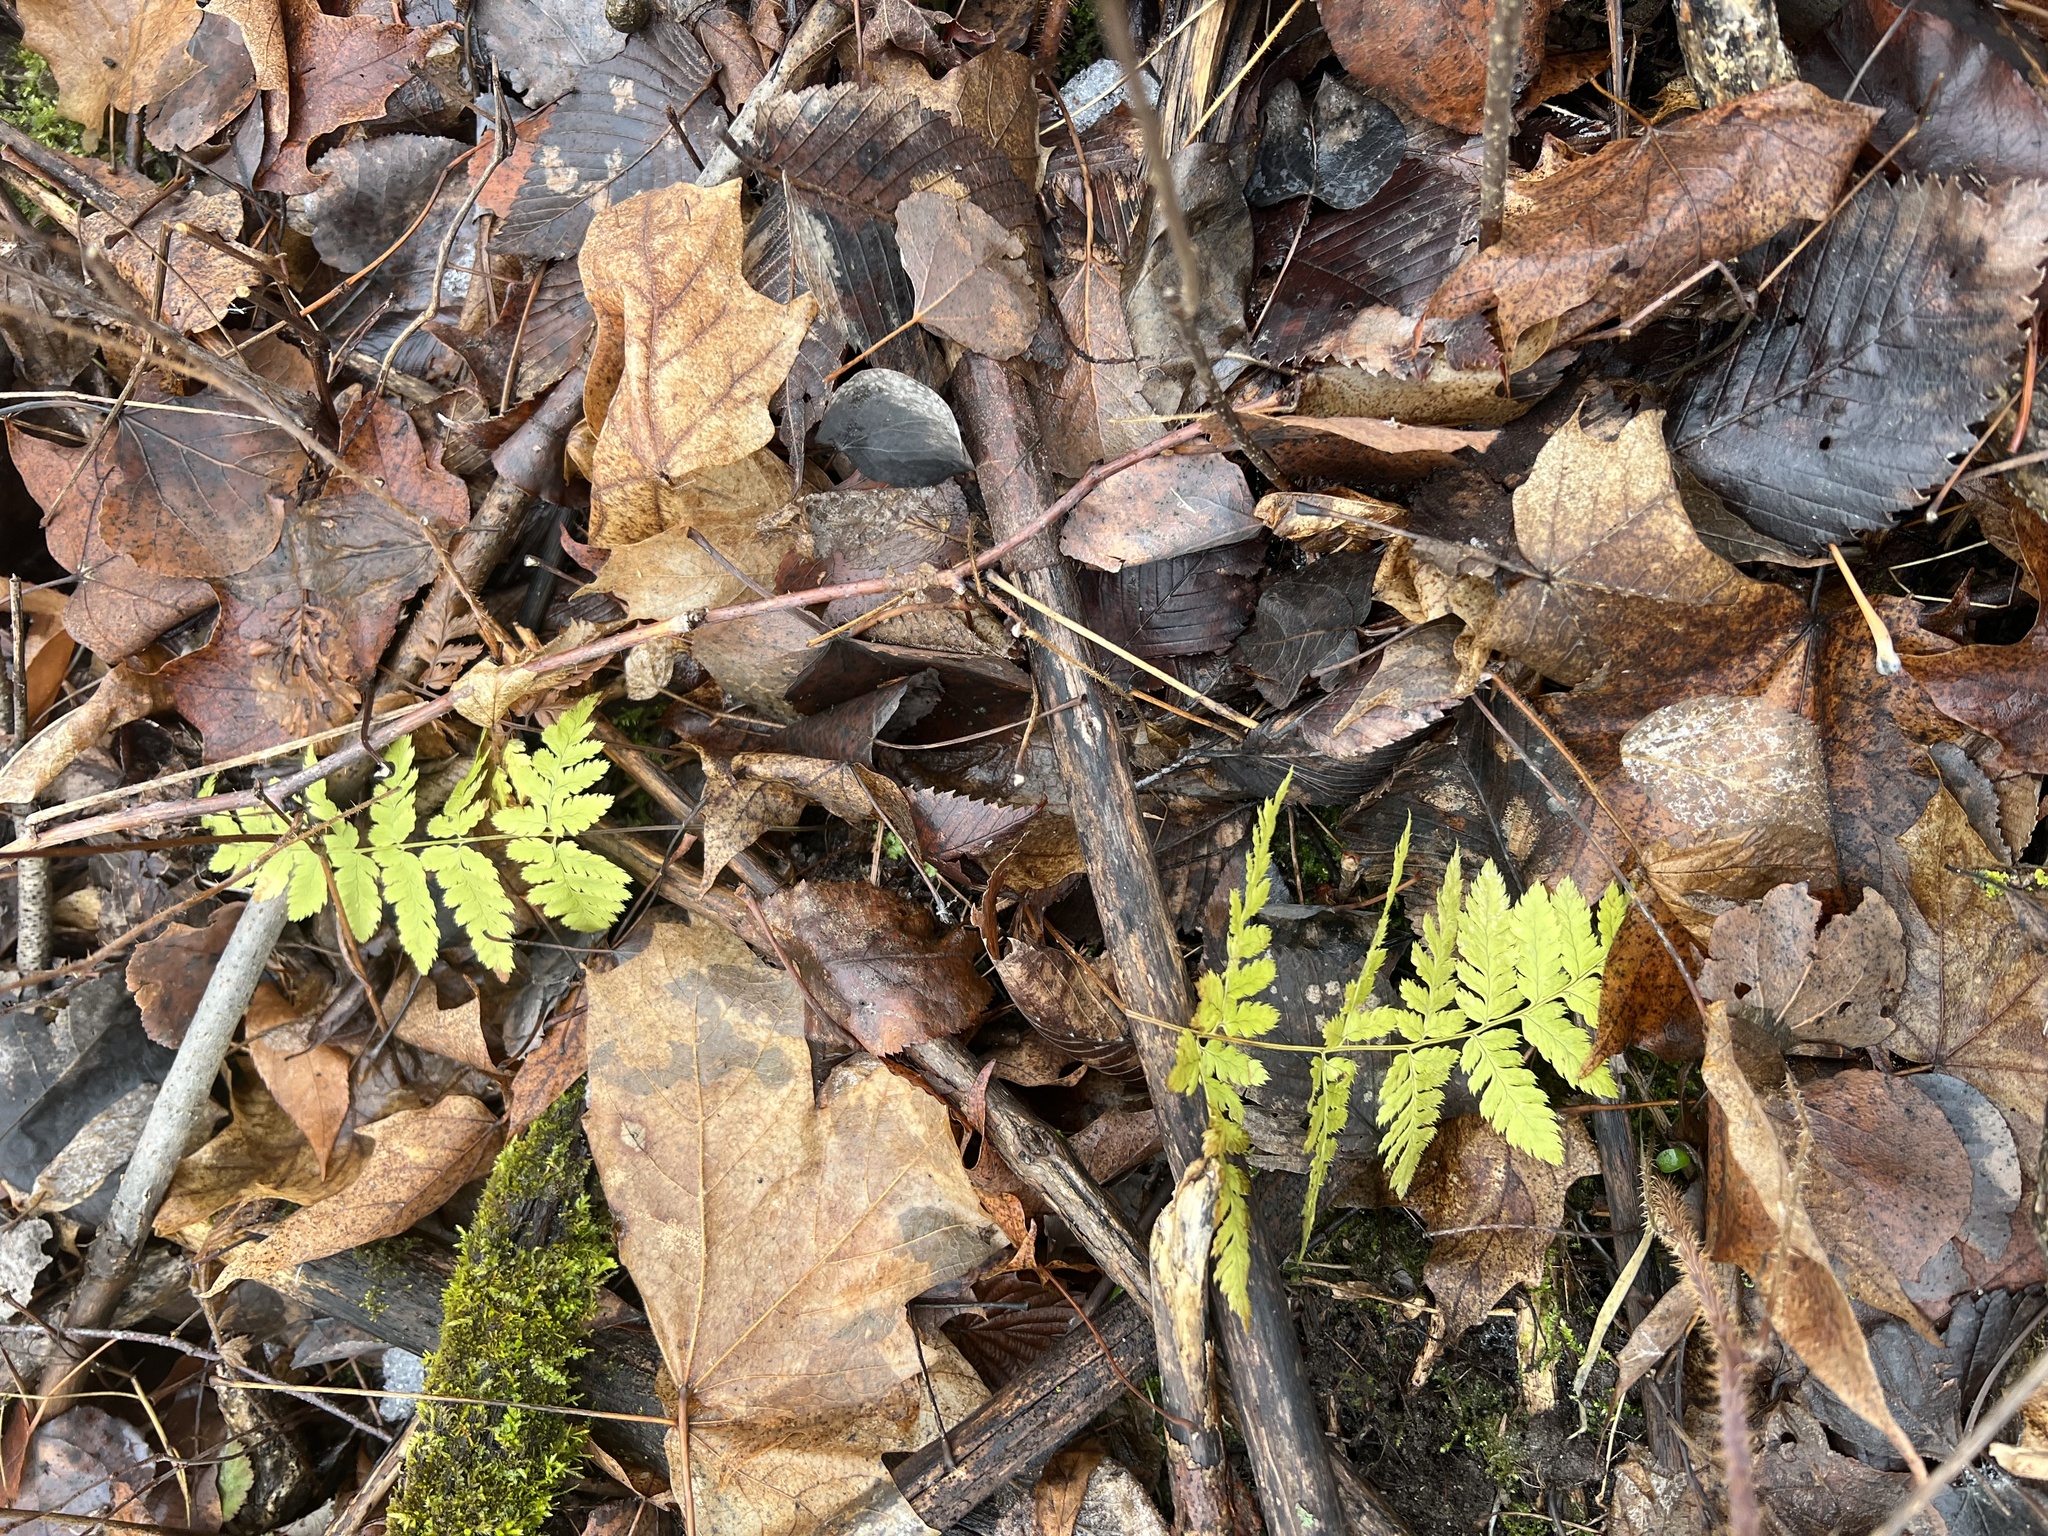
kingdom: Plantae
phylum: Tracheophyta
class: Polypodiopsida
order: Polypodiales
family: Dryopteridaceae
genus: Dryopteris
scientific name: Dryopteris carthusiana
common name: Narrow buckler-fern
